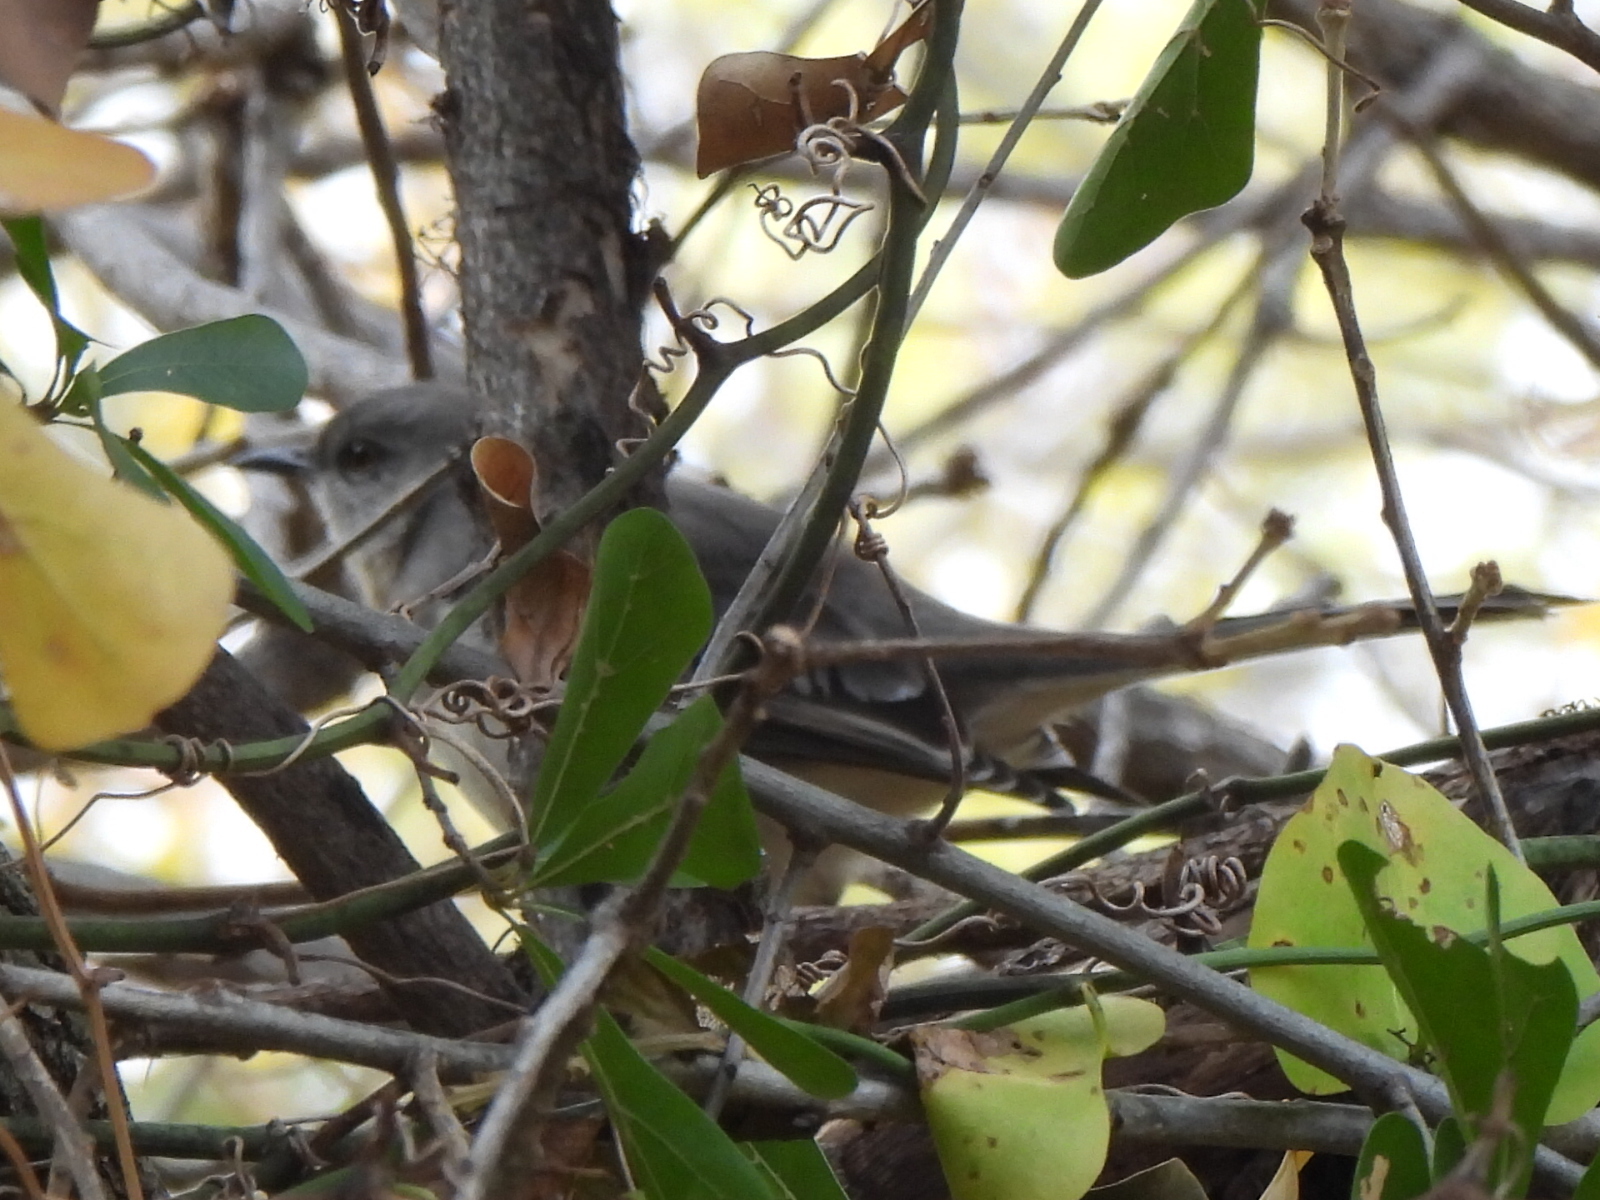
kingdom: Animalia
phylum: Chordata
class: Aves
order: Passeriformes
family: Mimidae
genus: Mimus
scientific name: Mimus polyglottos
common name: Northern mockingbird
